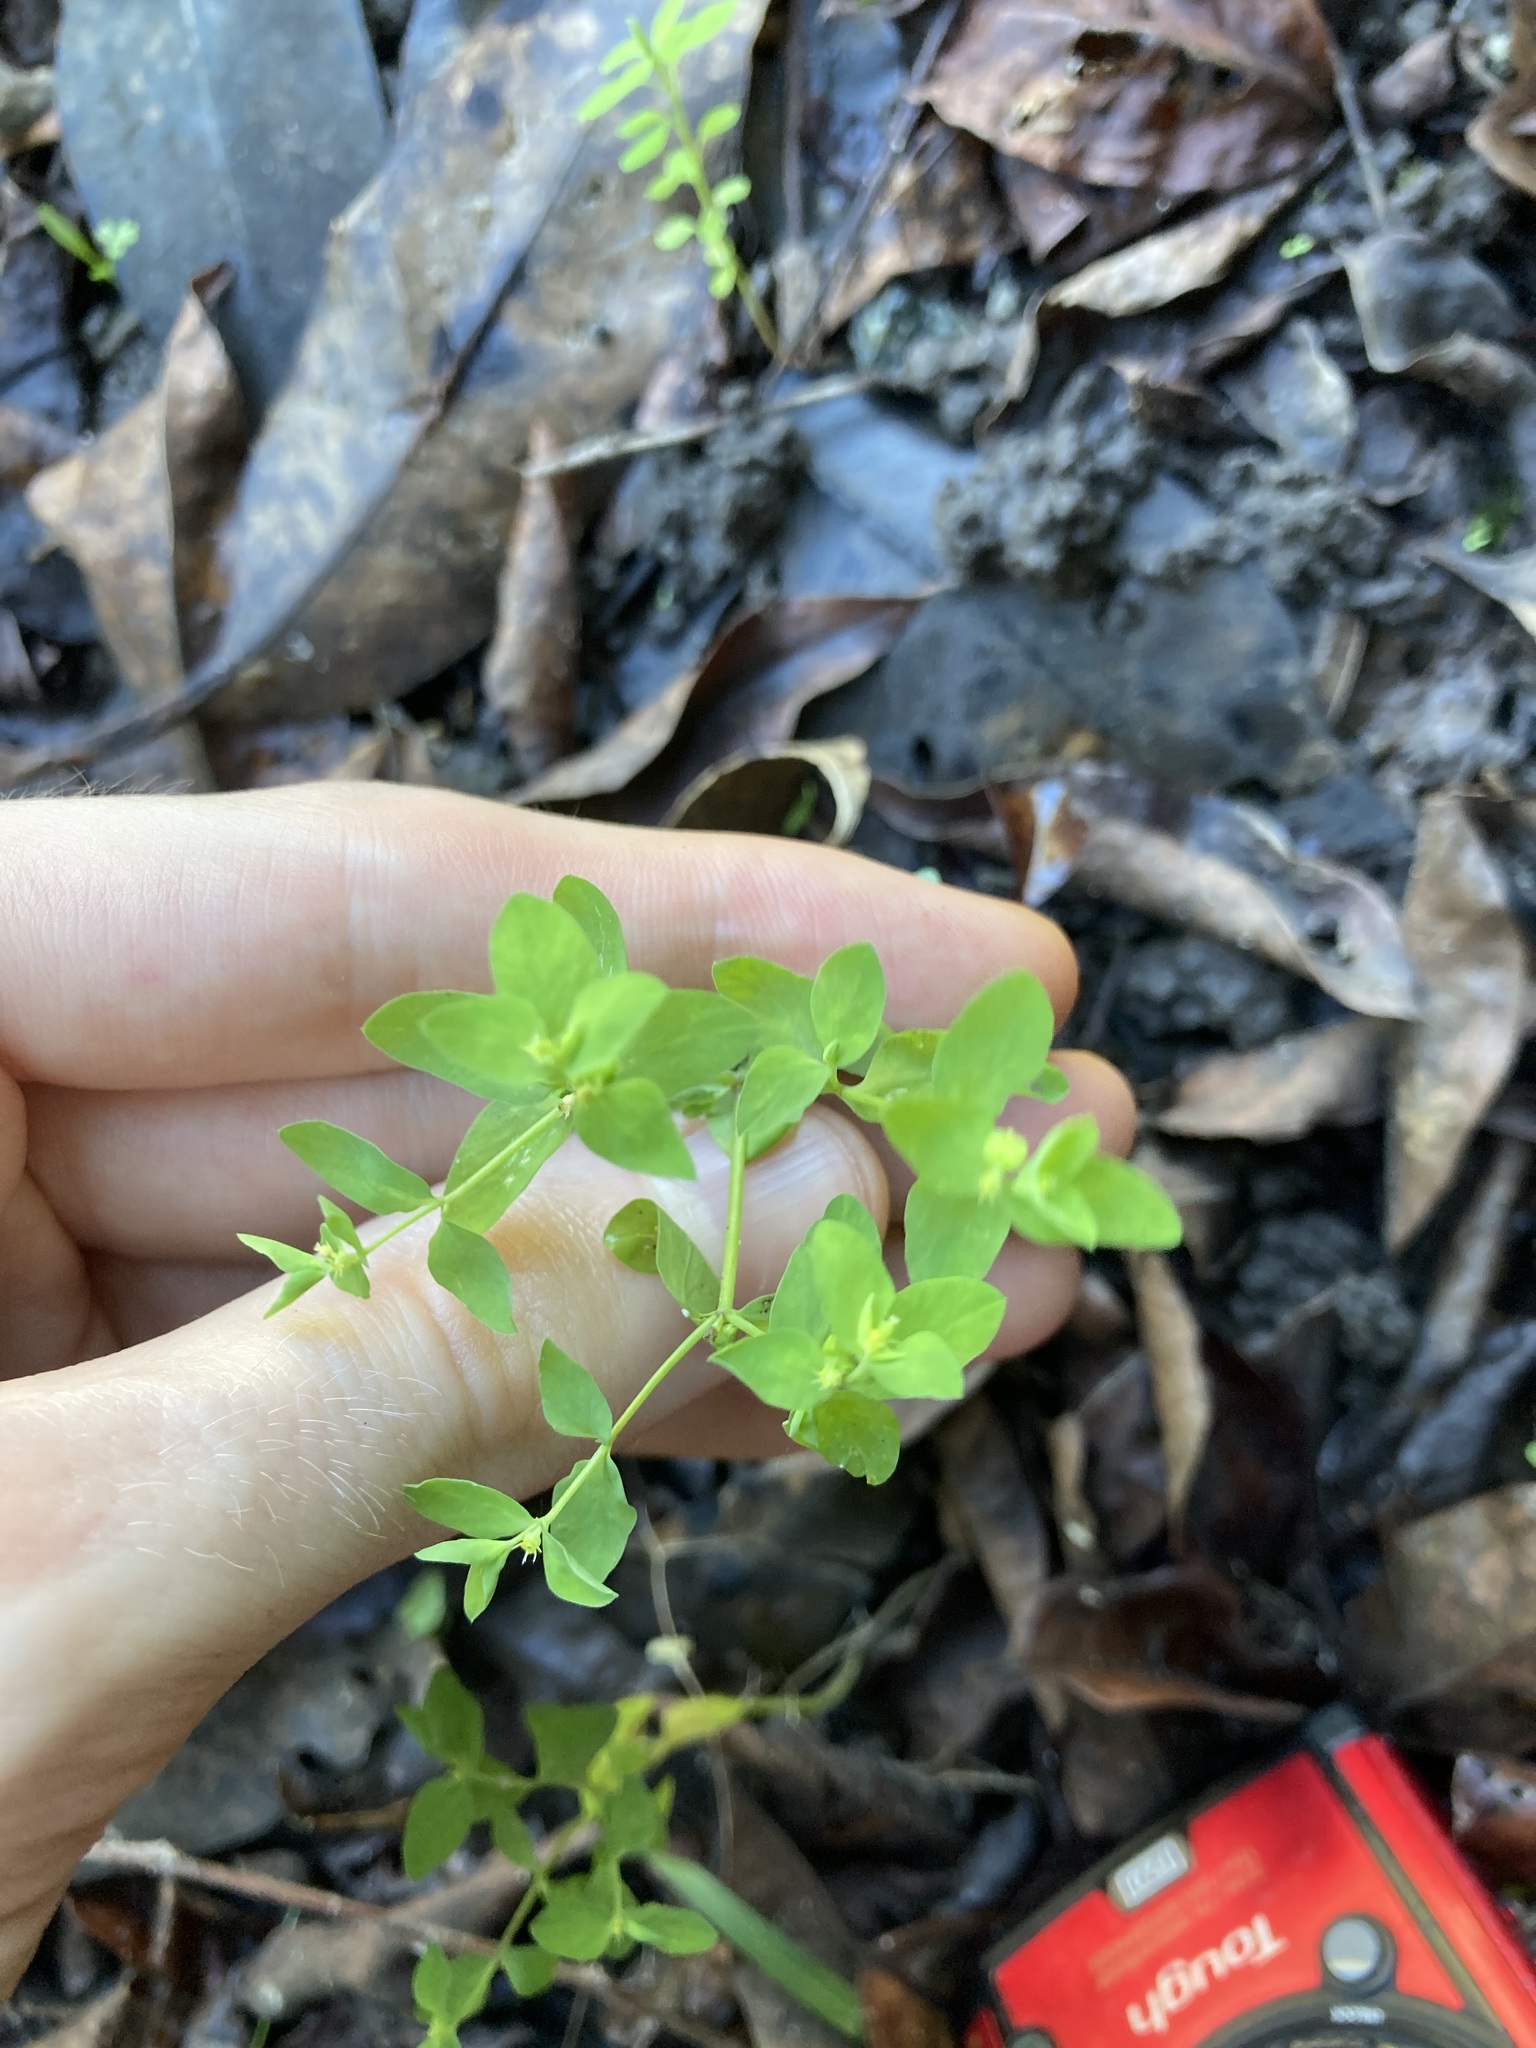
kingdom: Plantae
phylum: Tracheophyta
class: Magnoliopsida
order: Malpighiales
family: Euphorbiaceae
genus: Euphorbia
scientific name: Euphorbia peplus
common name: Petty spurge
